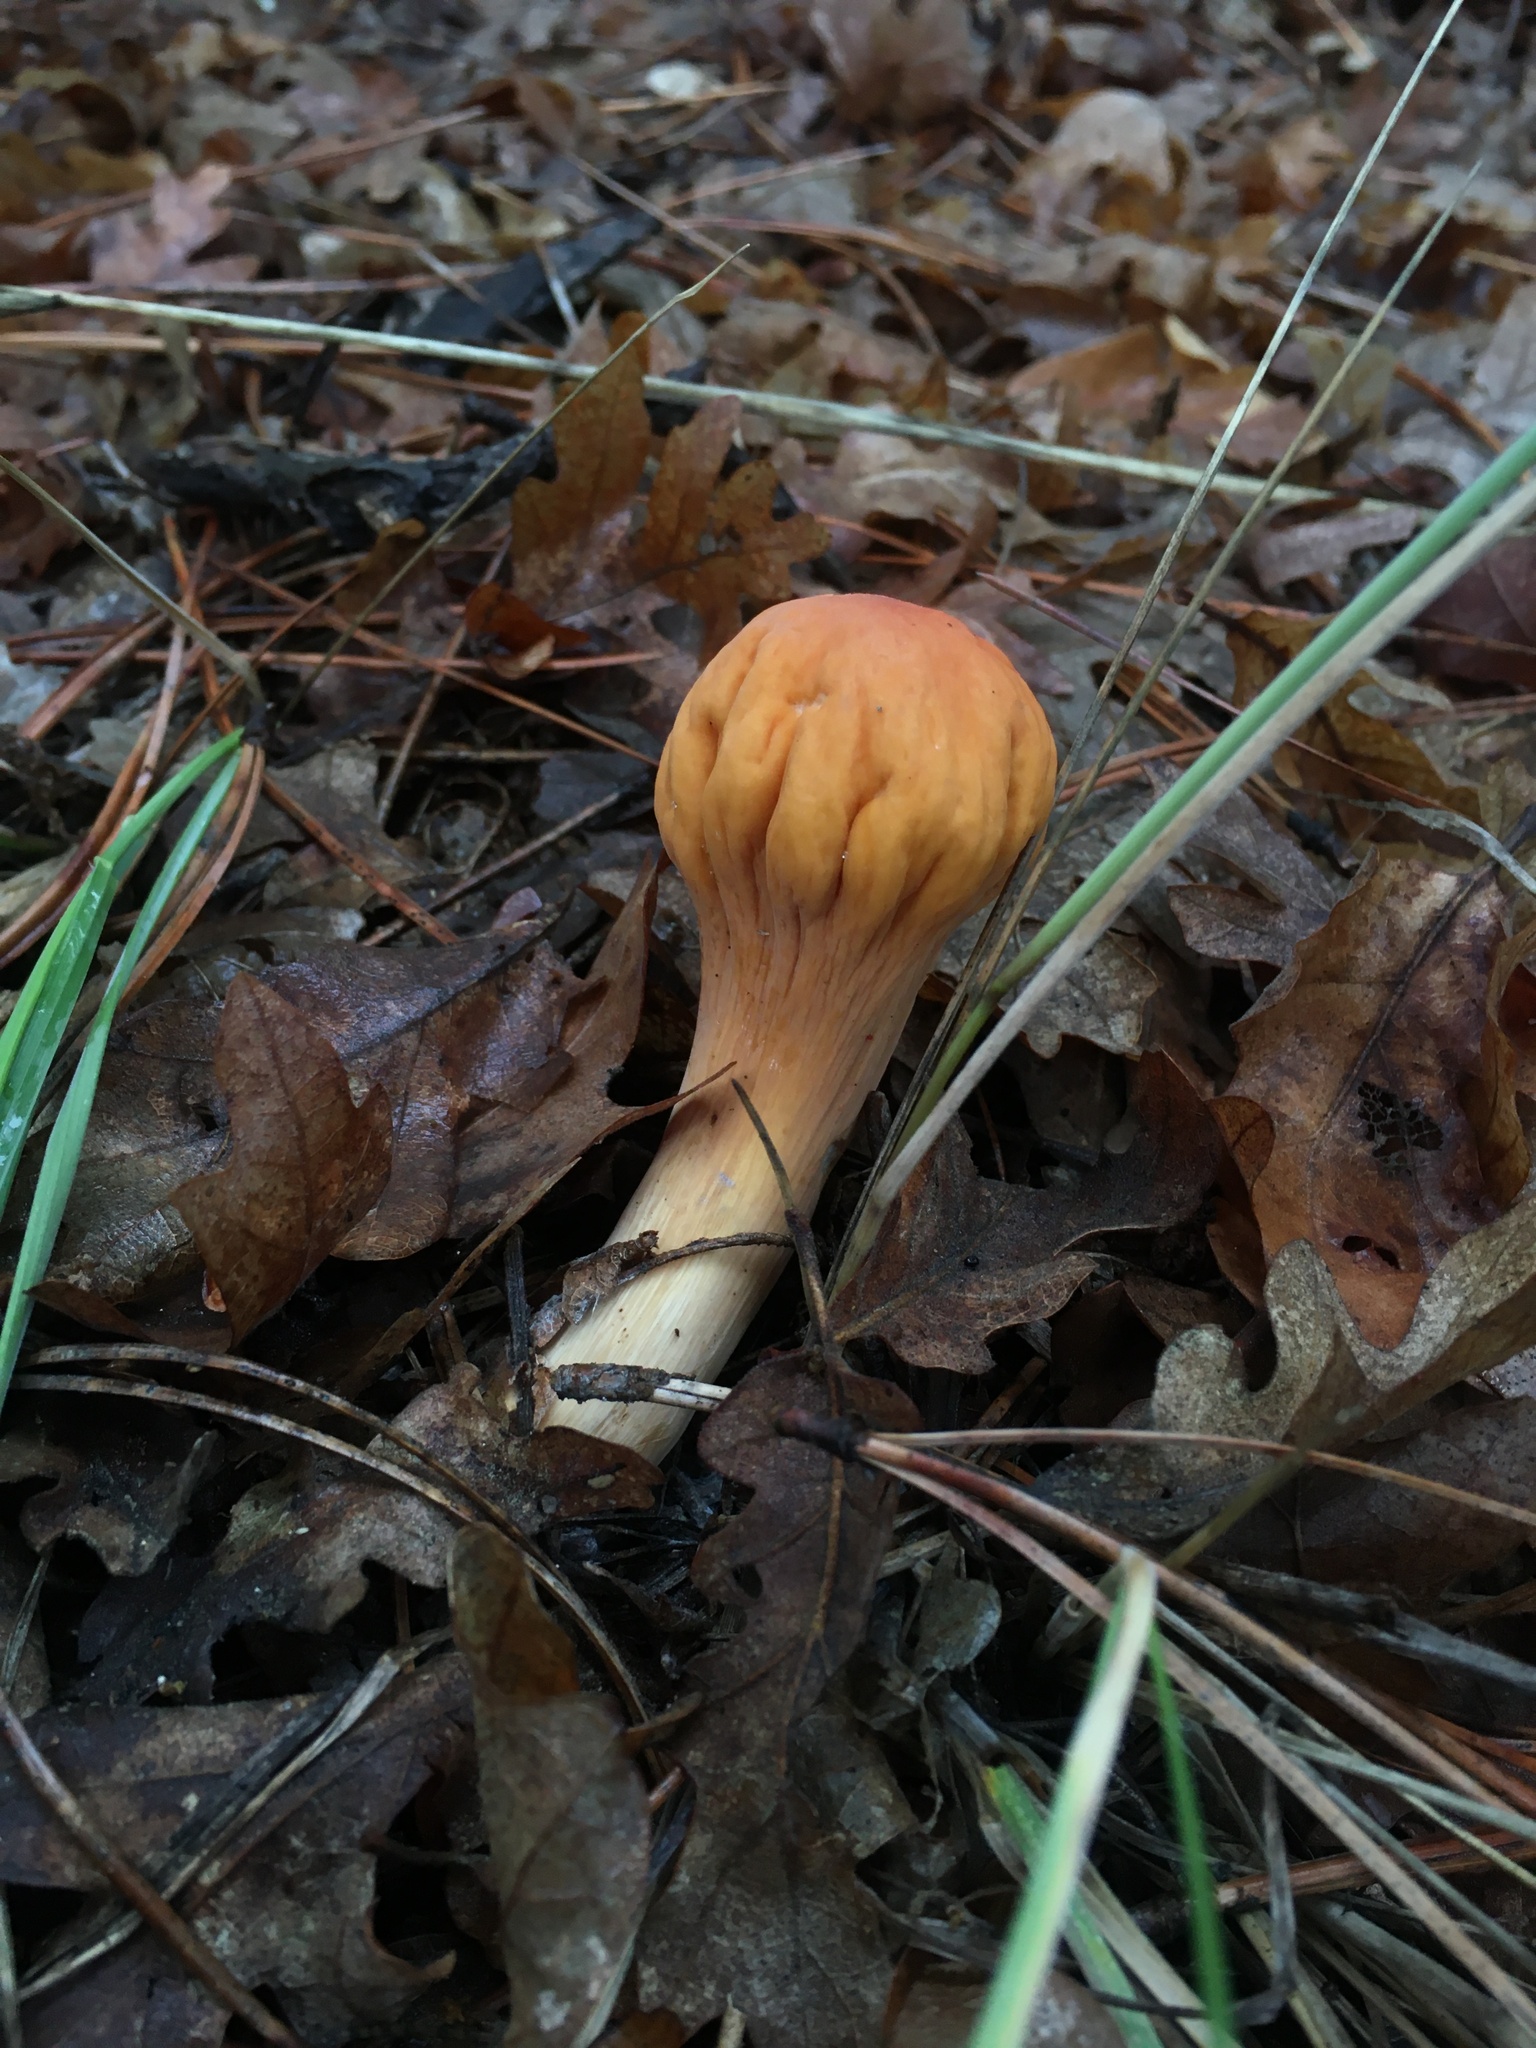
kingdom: Fungi
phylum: Basidiomycota
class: Agaricomycetes
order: Gomphales
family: Clavariadelphaceae
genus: Clavariadelphus
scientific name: Clavariadelphus truncatus
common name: Truncated club
